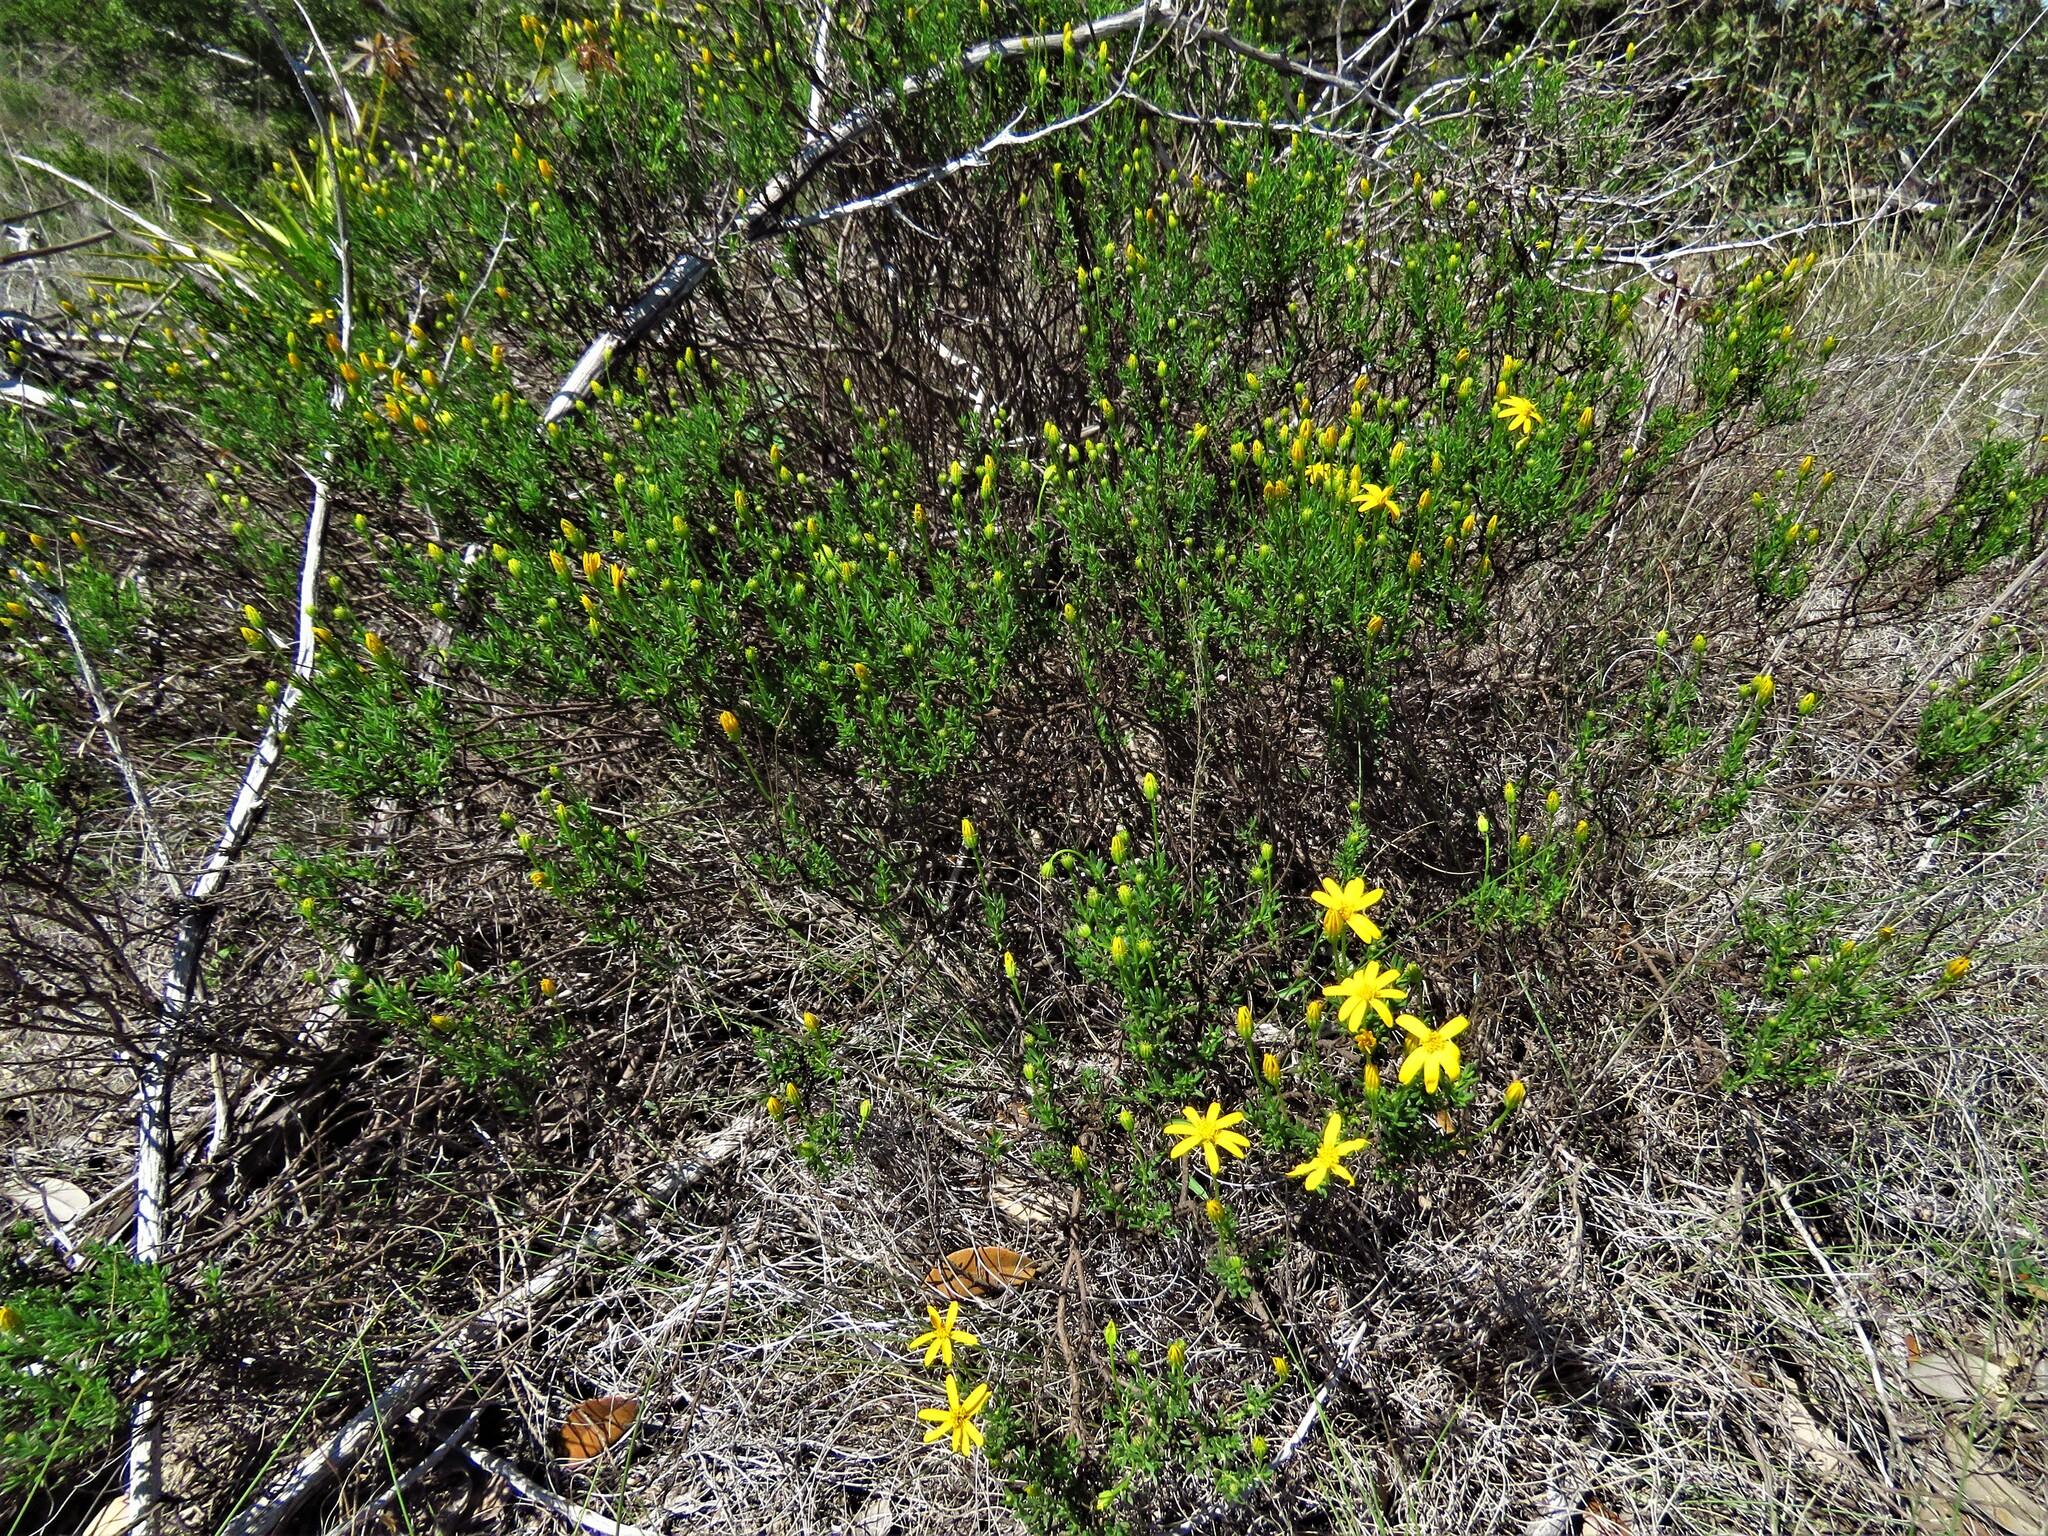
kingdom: Plantae
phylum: Tracheophyta
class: Magnoliopsida
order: Asterales
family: Asteraceae
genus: Chrysactinia
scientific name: Chrysactinia mexicana
